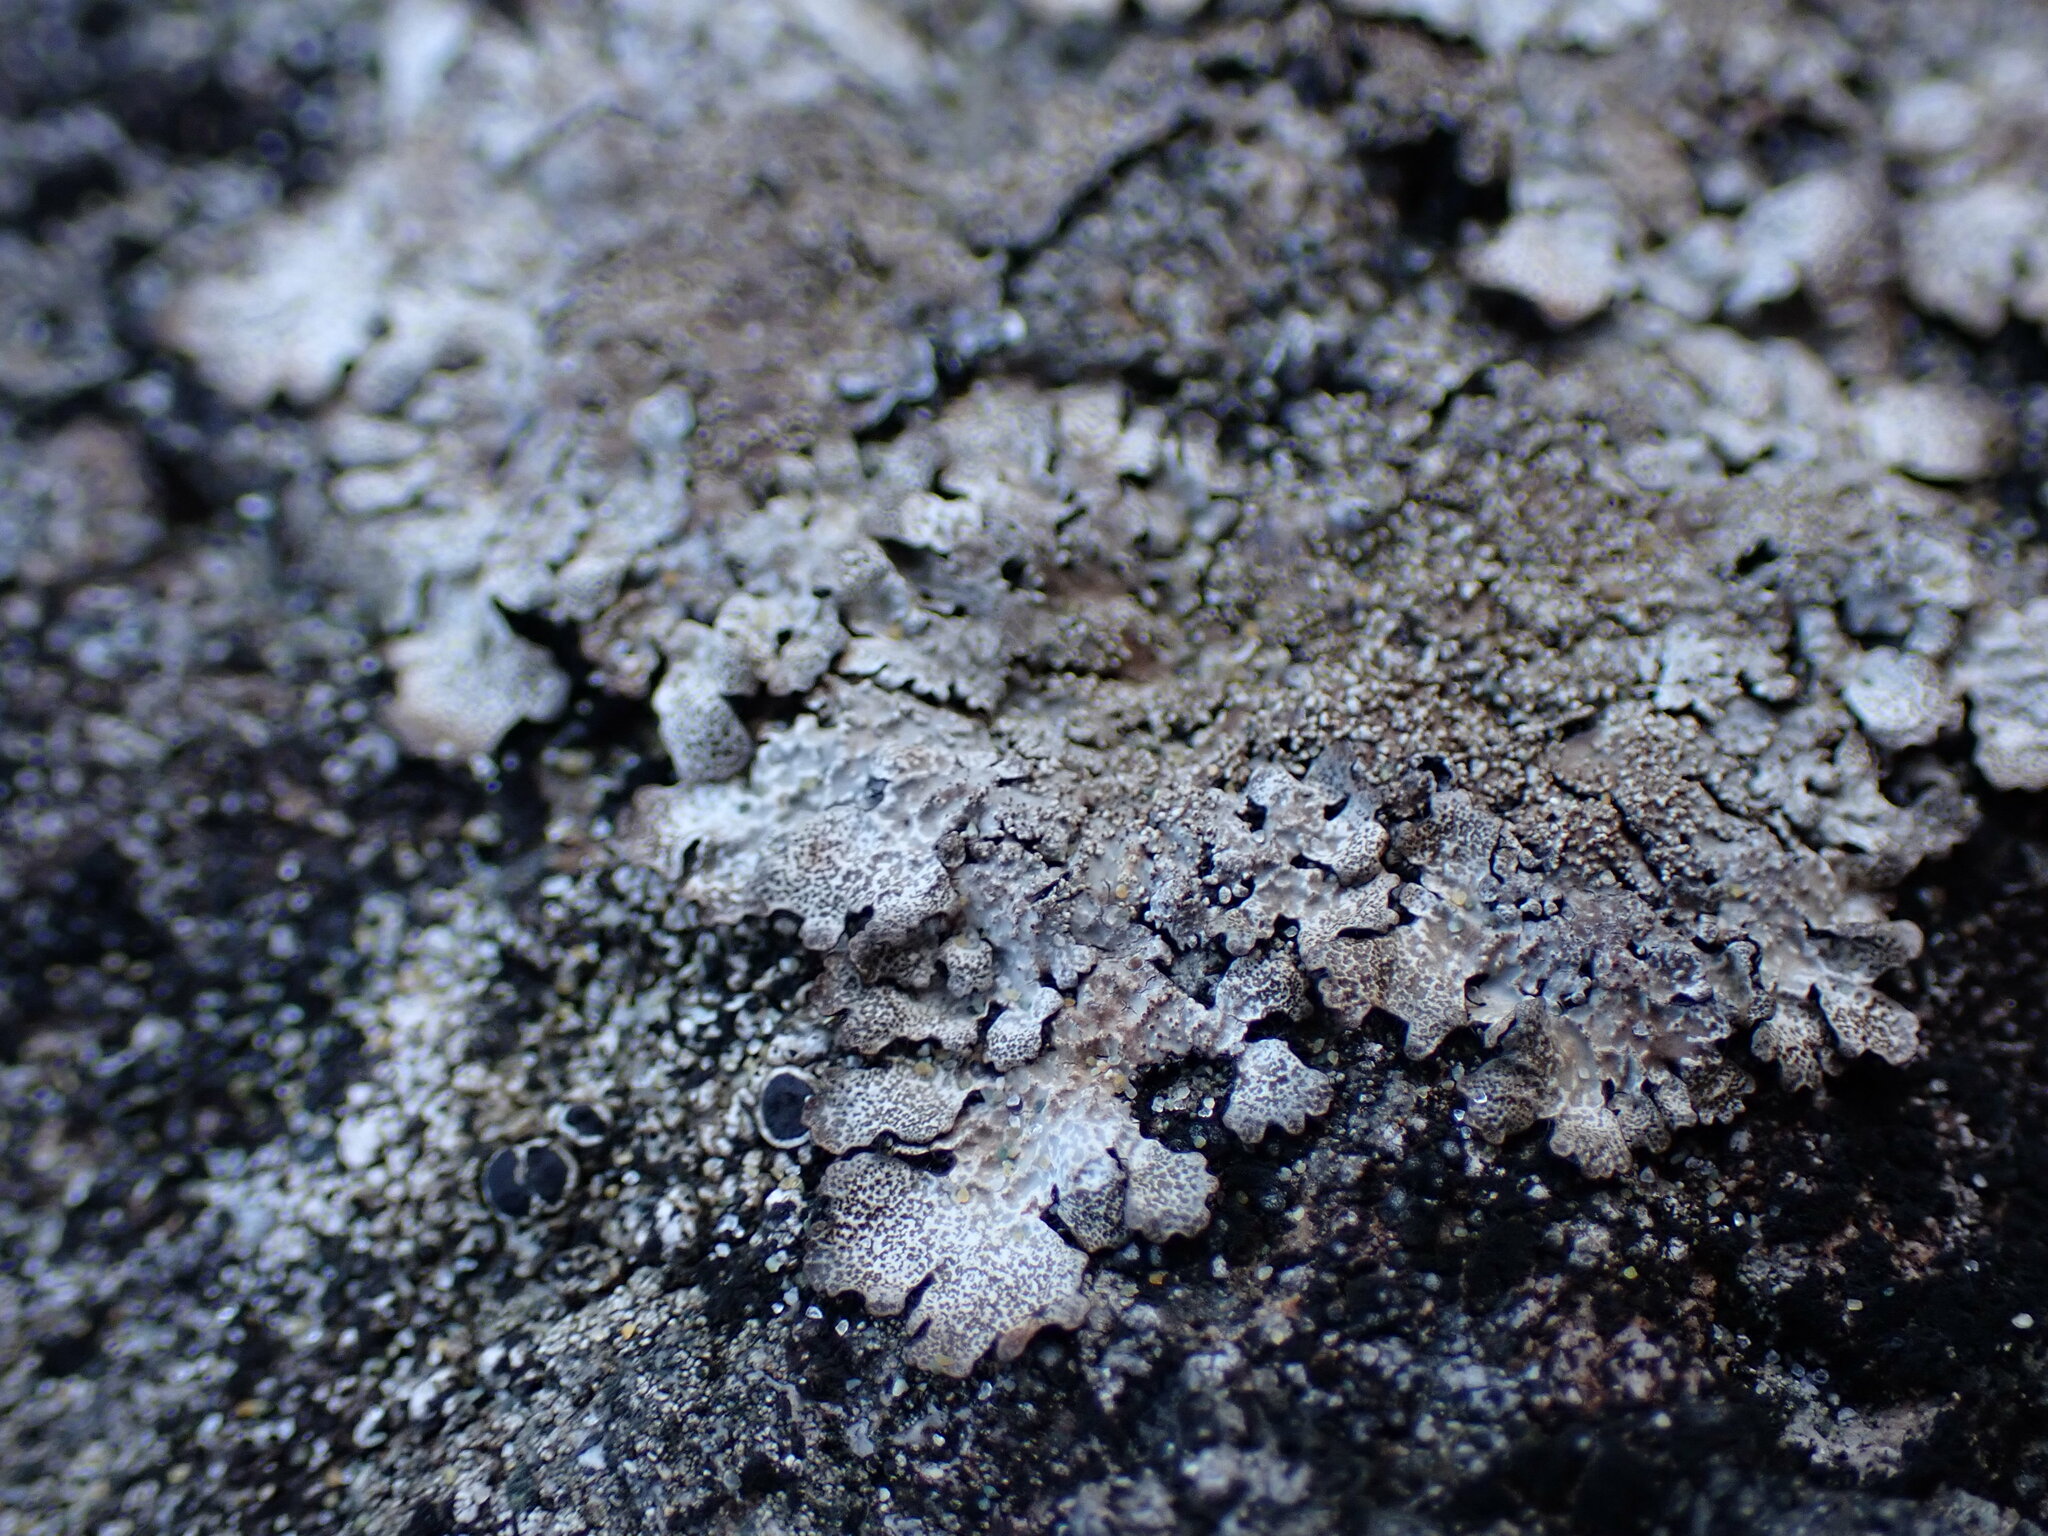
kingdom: Fungi
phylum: Ascomycota
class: Lecanoromycetes
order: Lecanorales
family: Parmeliaceae
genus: Parmelia
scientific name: Parmelia saxatilis
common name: Salted shield lichen
